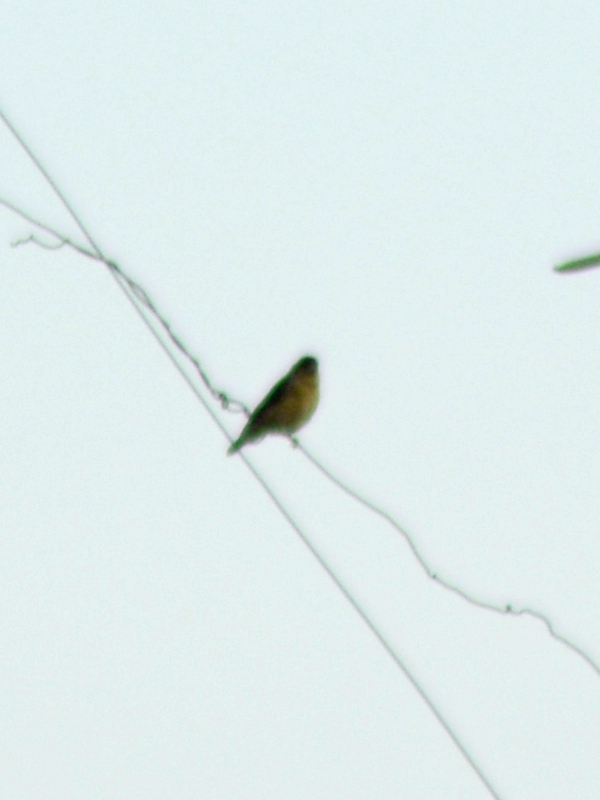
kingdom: Animalia
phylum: Chordata
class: Aves
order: Passeriformes
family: Fringillidae
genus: Spinus
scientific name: Spinus psaltria
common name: Lesser goldfinch
